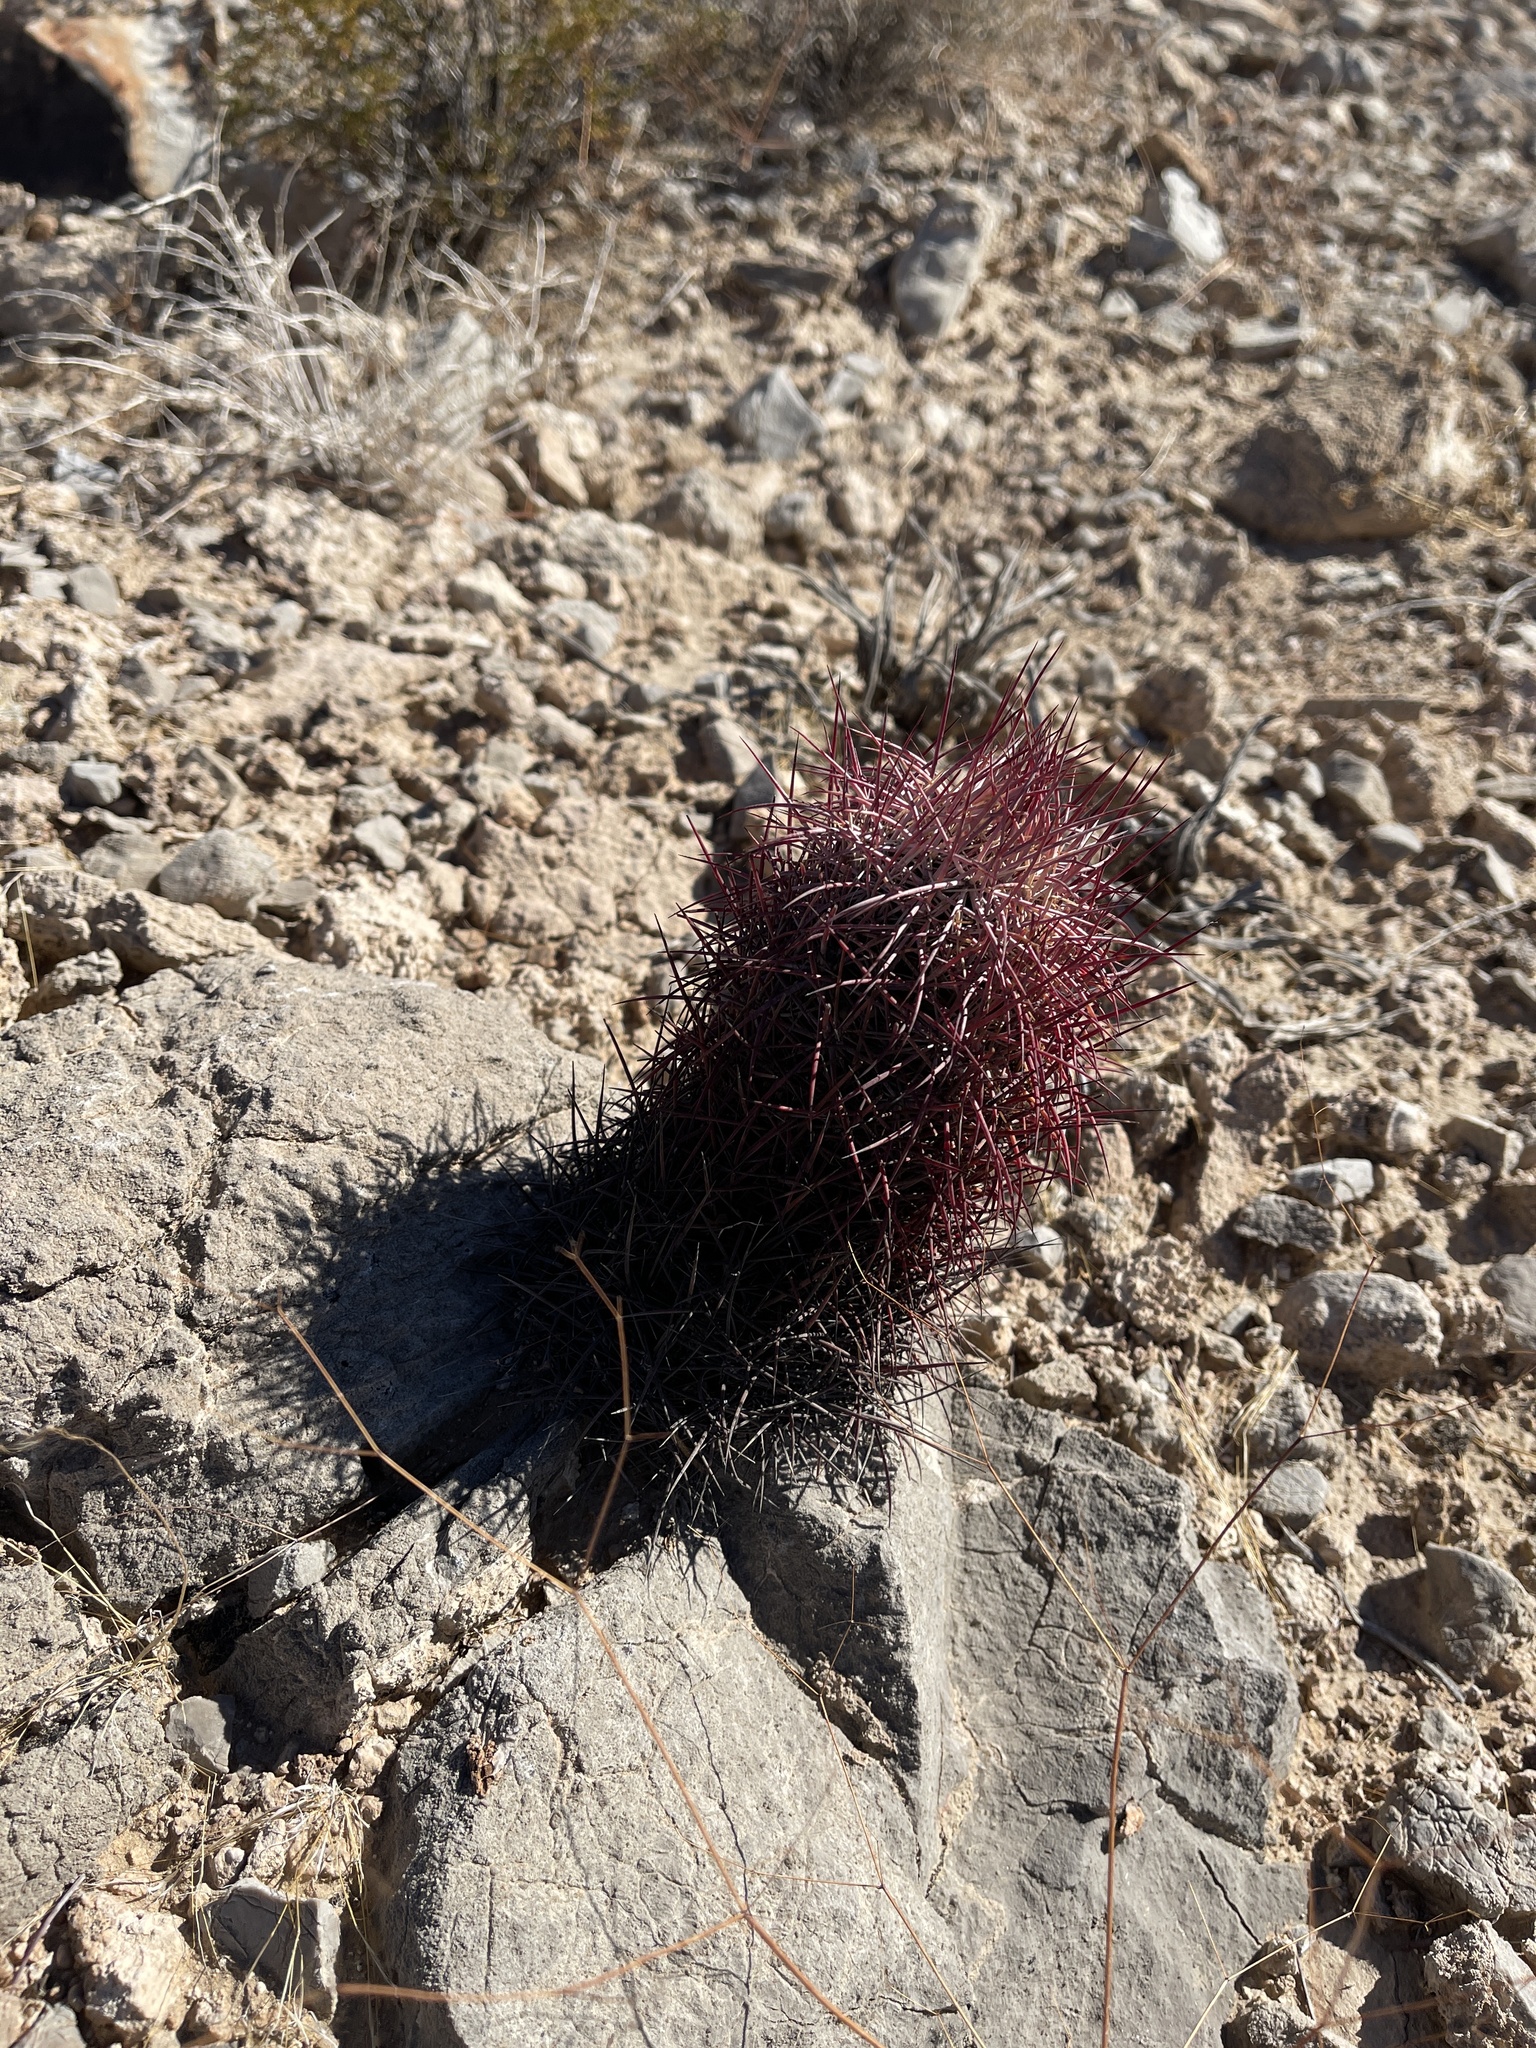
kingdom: Plantae
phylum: Tracheophyta
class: Magnoliopsida
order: Caryophyllales
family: Cactaceae
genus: Sclerocactus
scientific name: Sclerocactus johnsonii
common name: Eight-spine fishhook cactus
